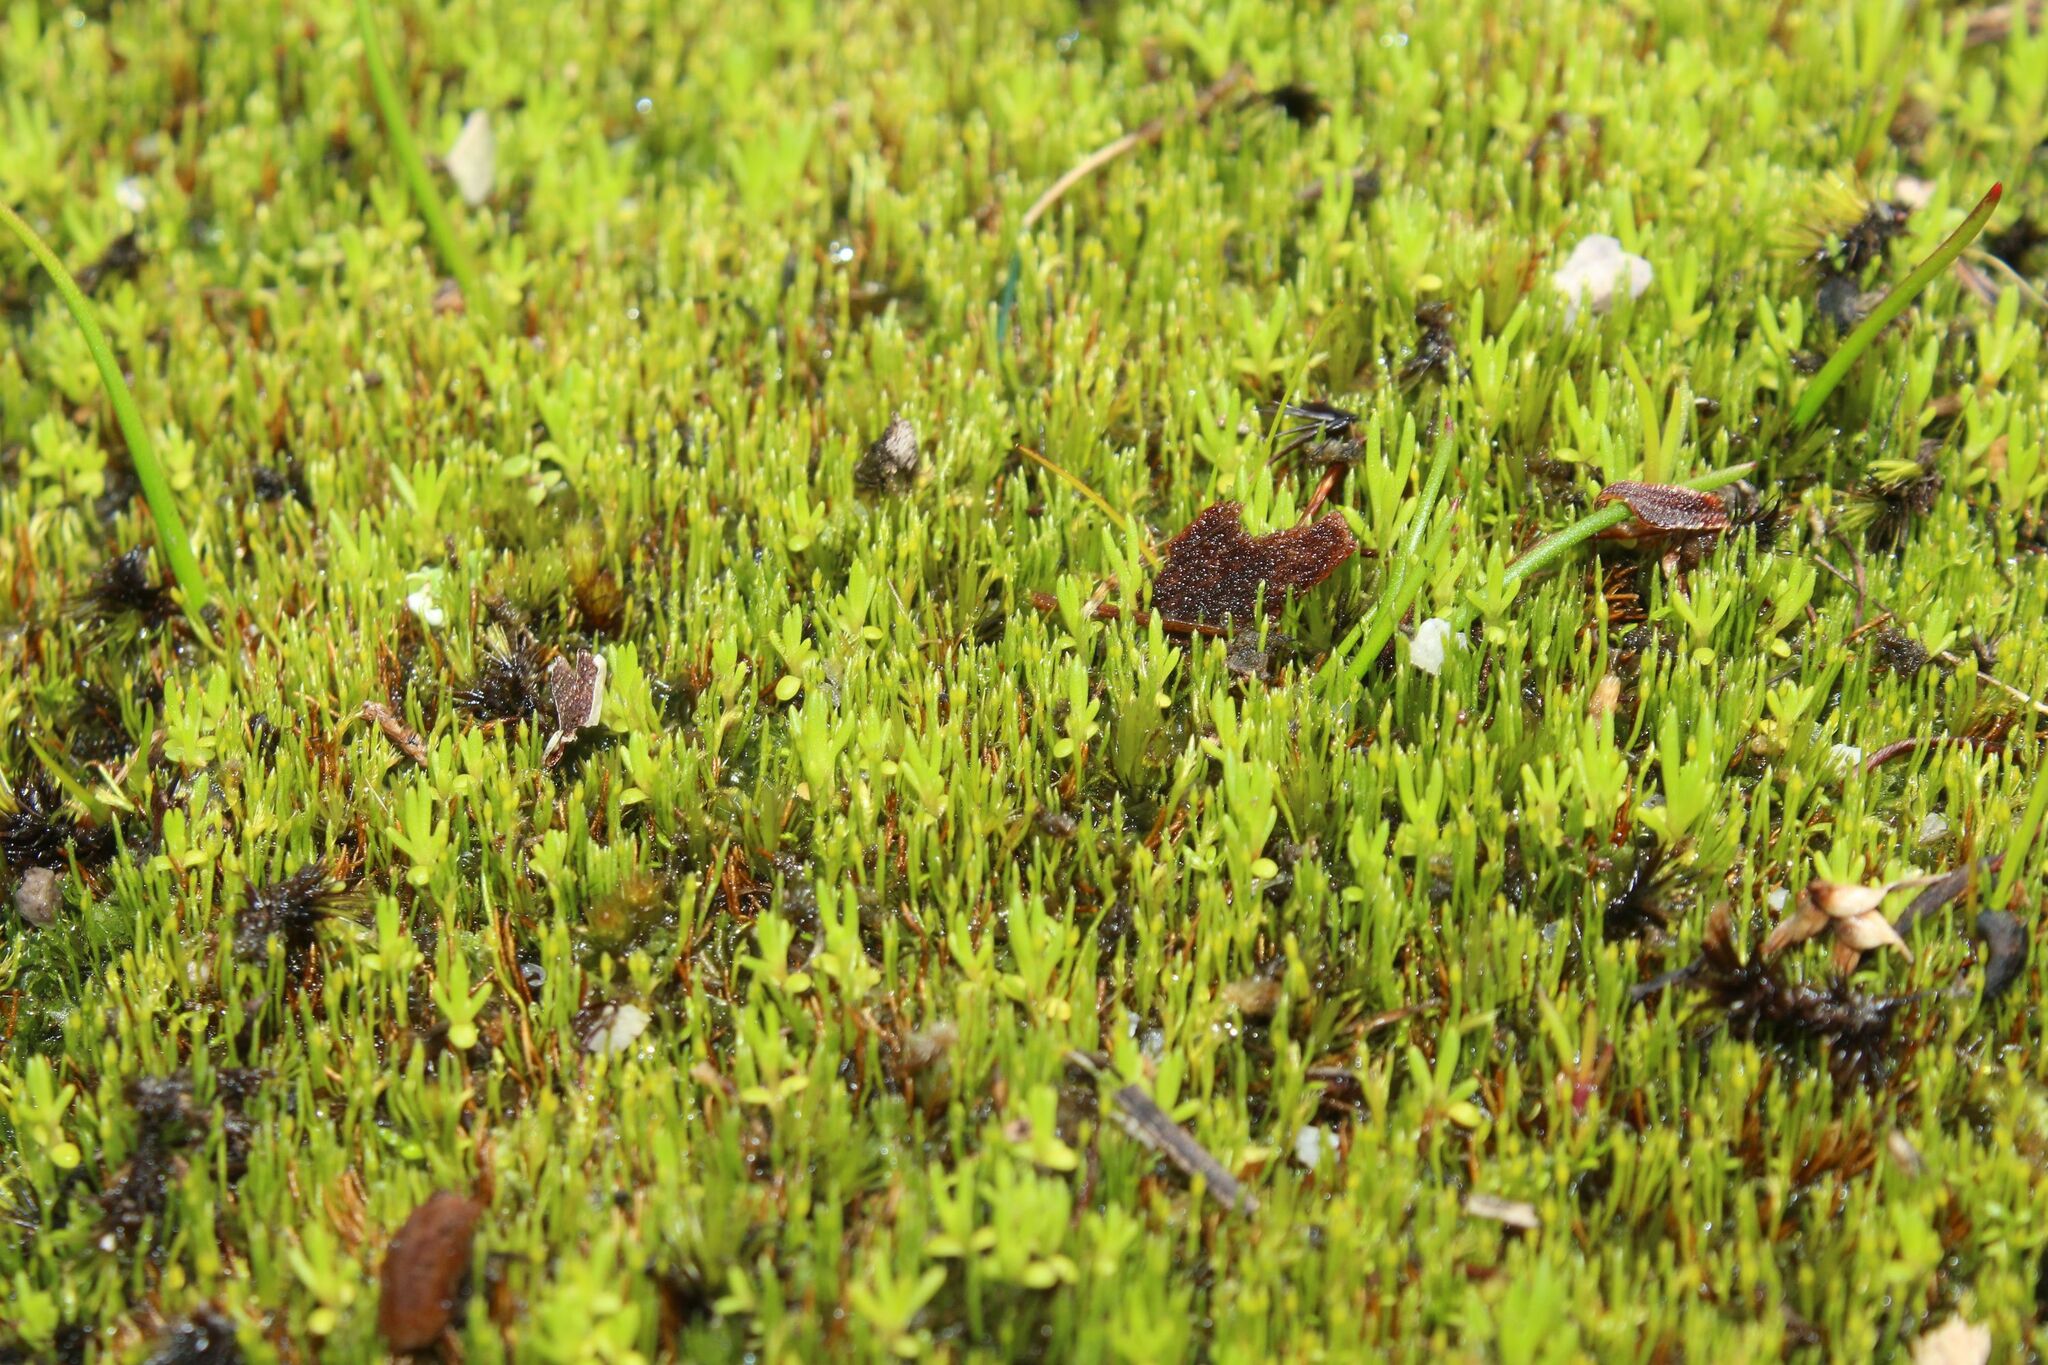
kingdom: Plantae
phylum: Bryophyta
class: Bryopsida
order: Dicranales
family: Dicranellaceae
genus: Eccremidium
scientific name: Eccremidium pulchellum
